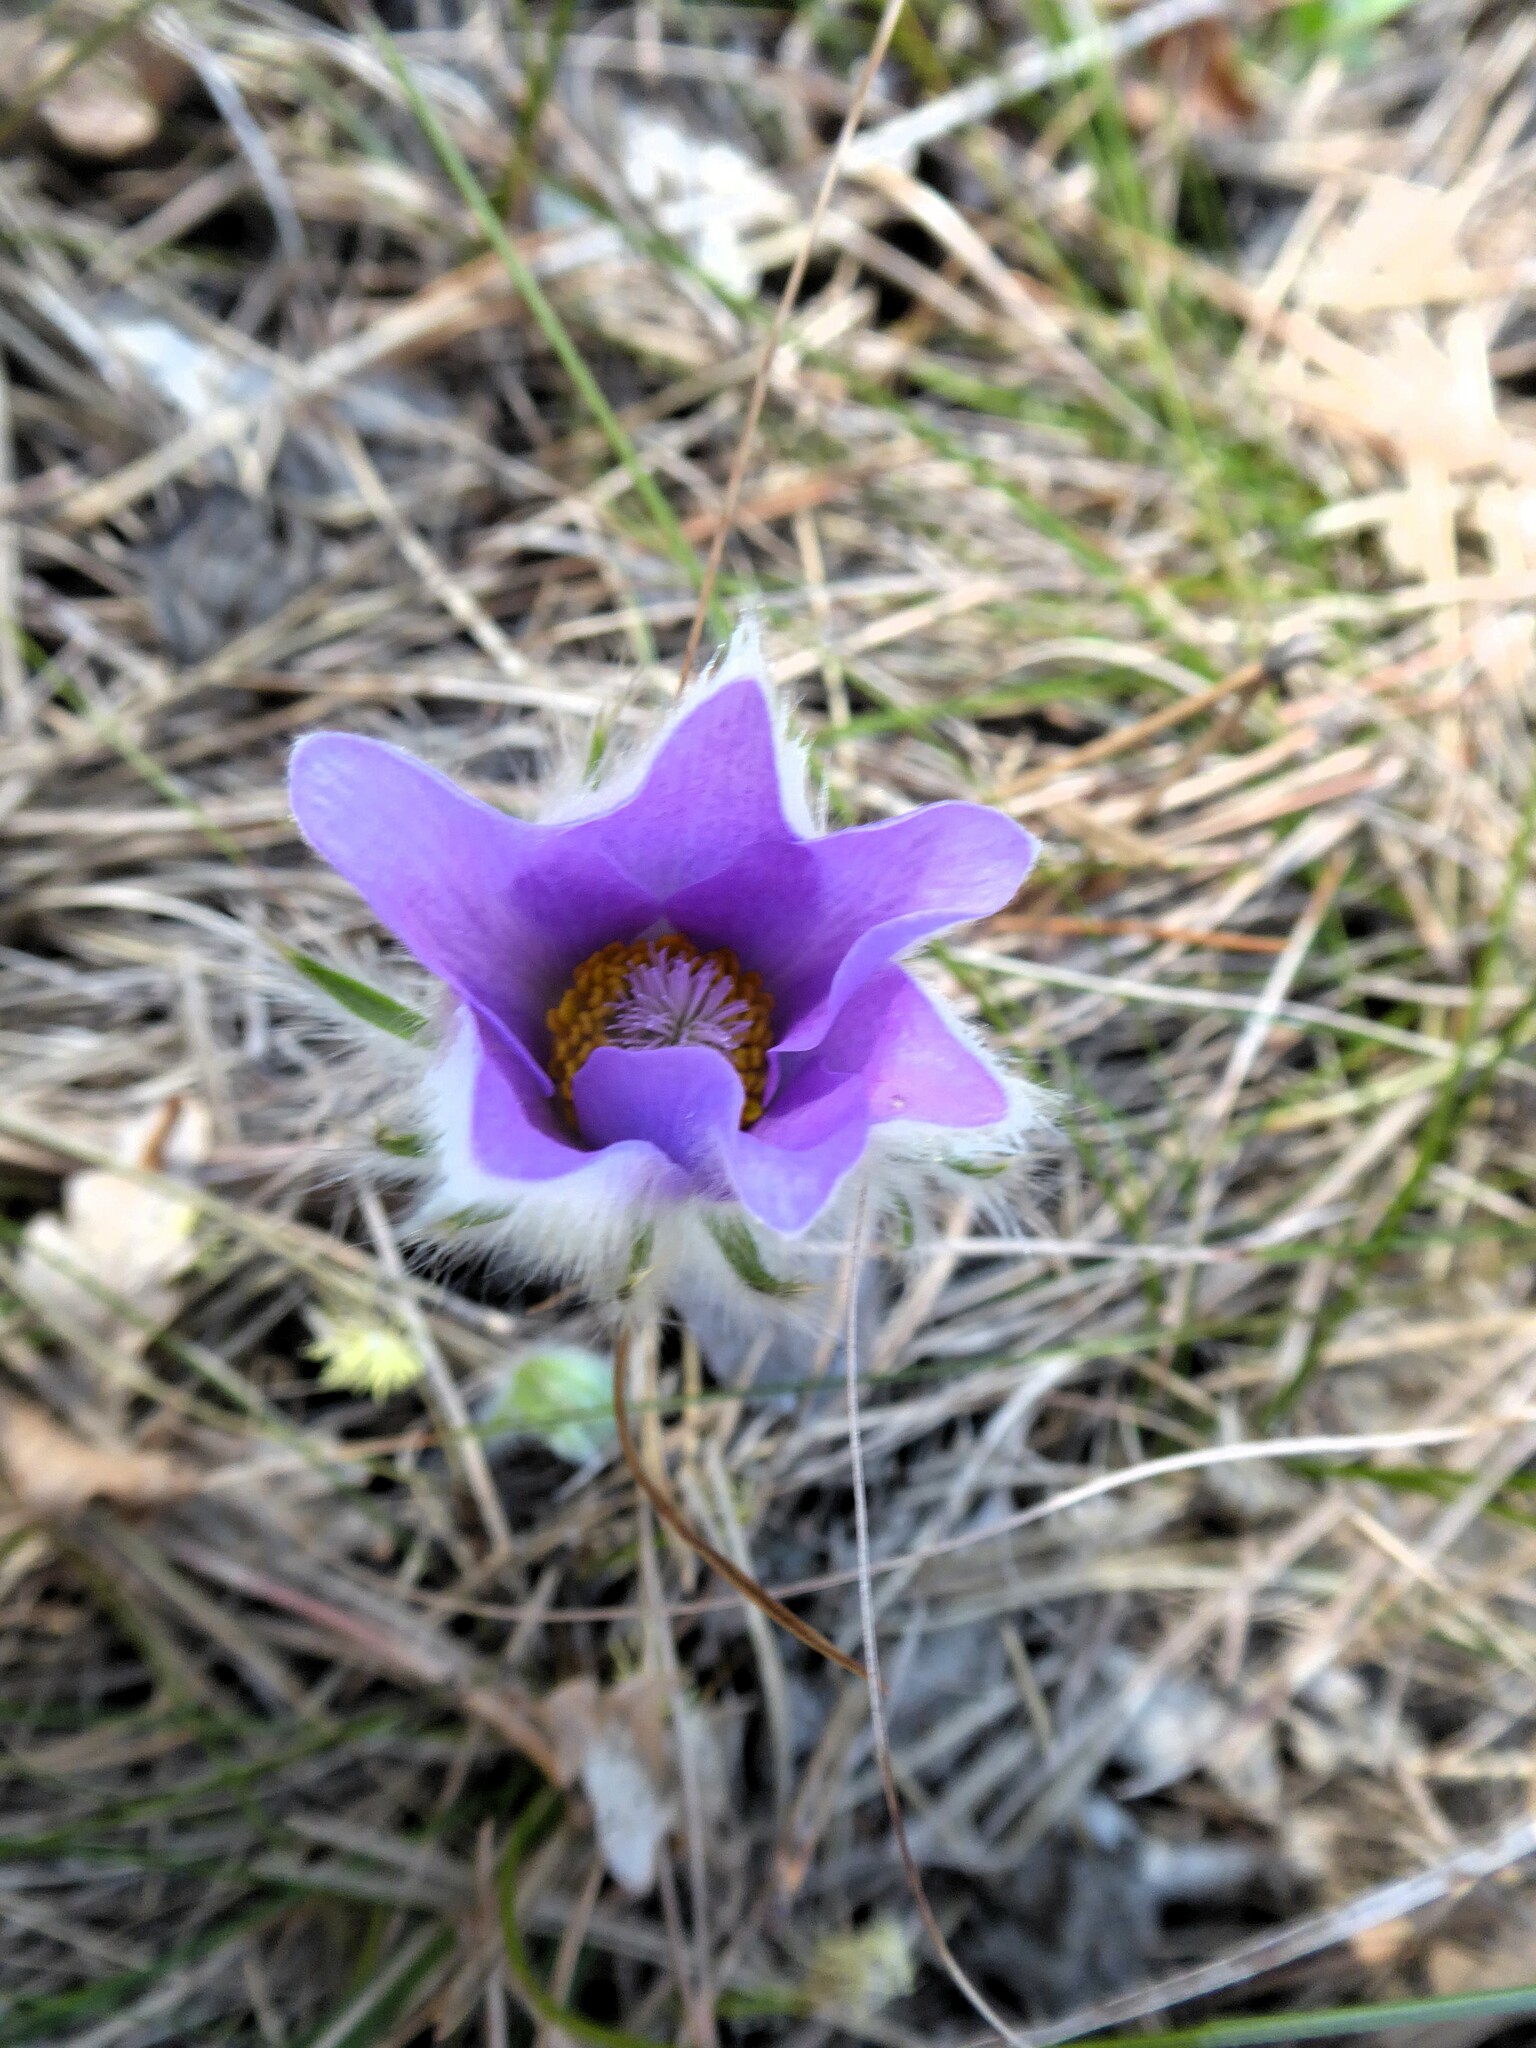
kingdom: Plantae
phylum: Tracheophyta
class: Magnoliopsida
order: Ranunculales
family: Ranunculaceae
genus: Pulsatilla
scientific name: Pulsatilla grandis
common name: Greater pasque flower
